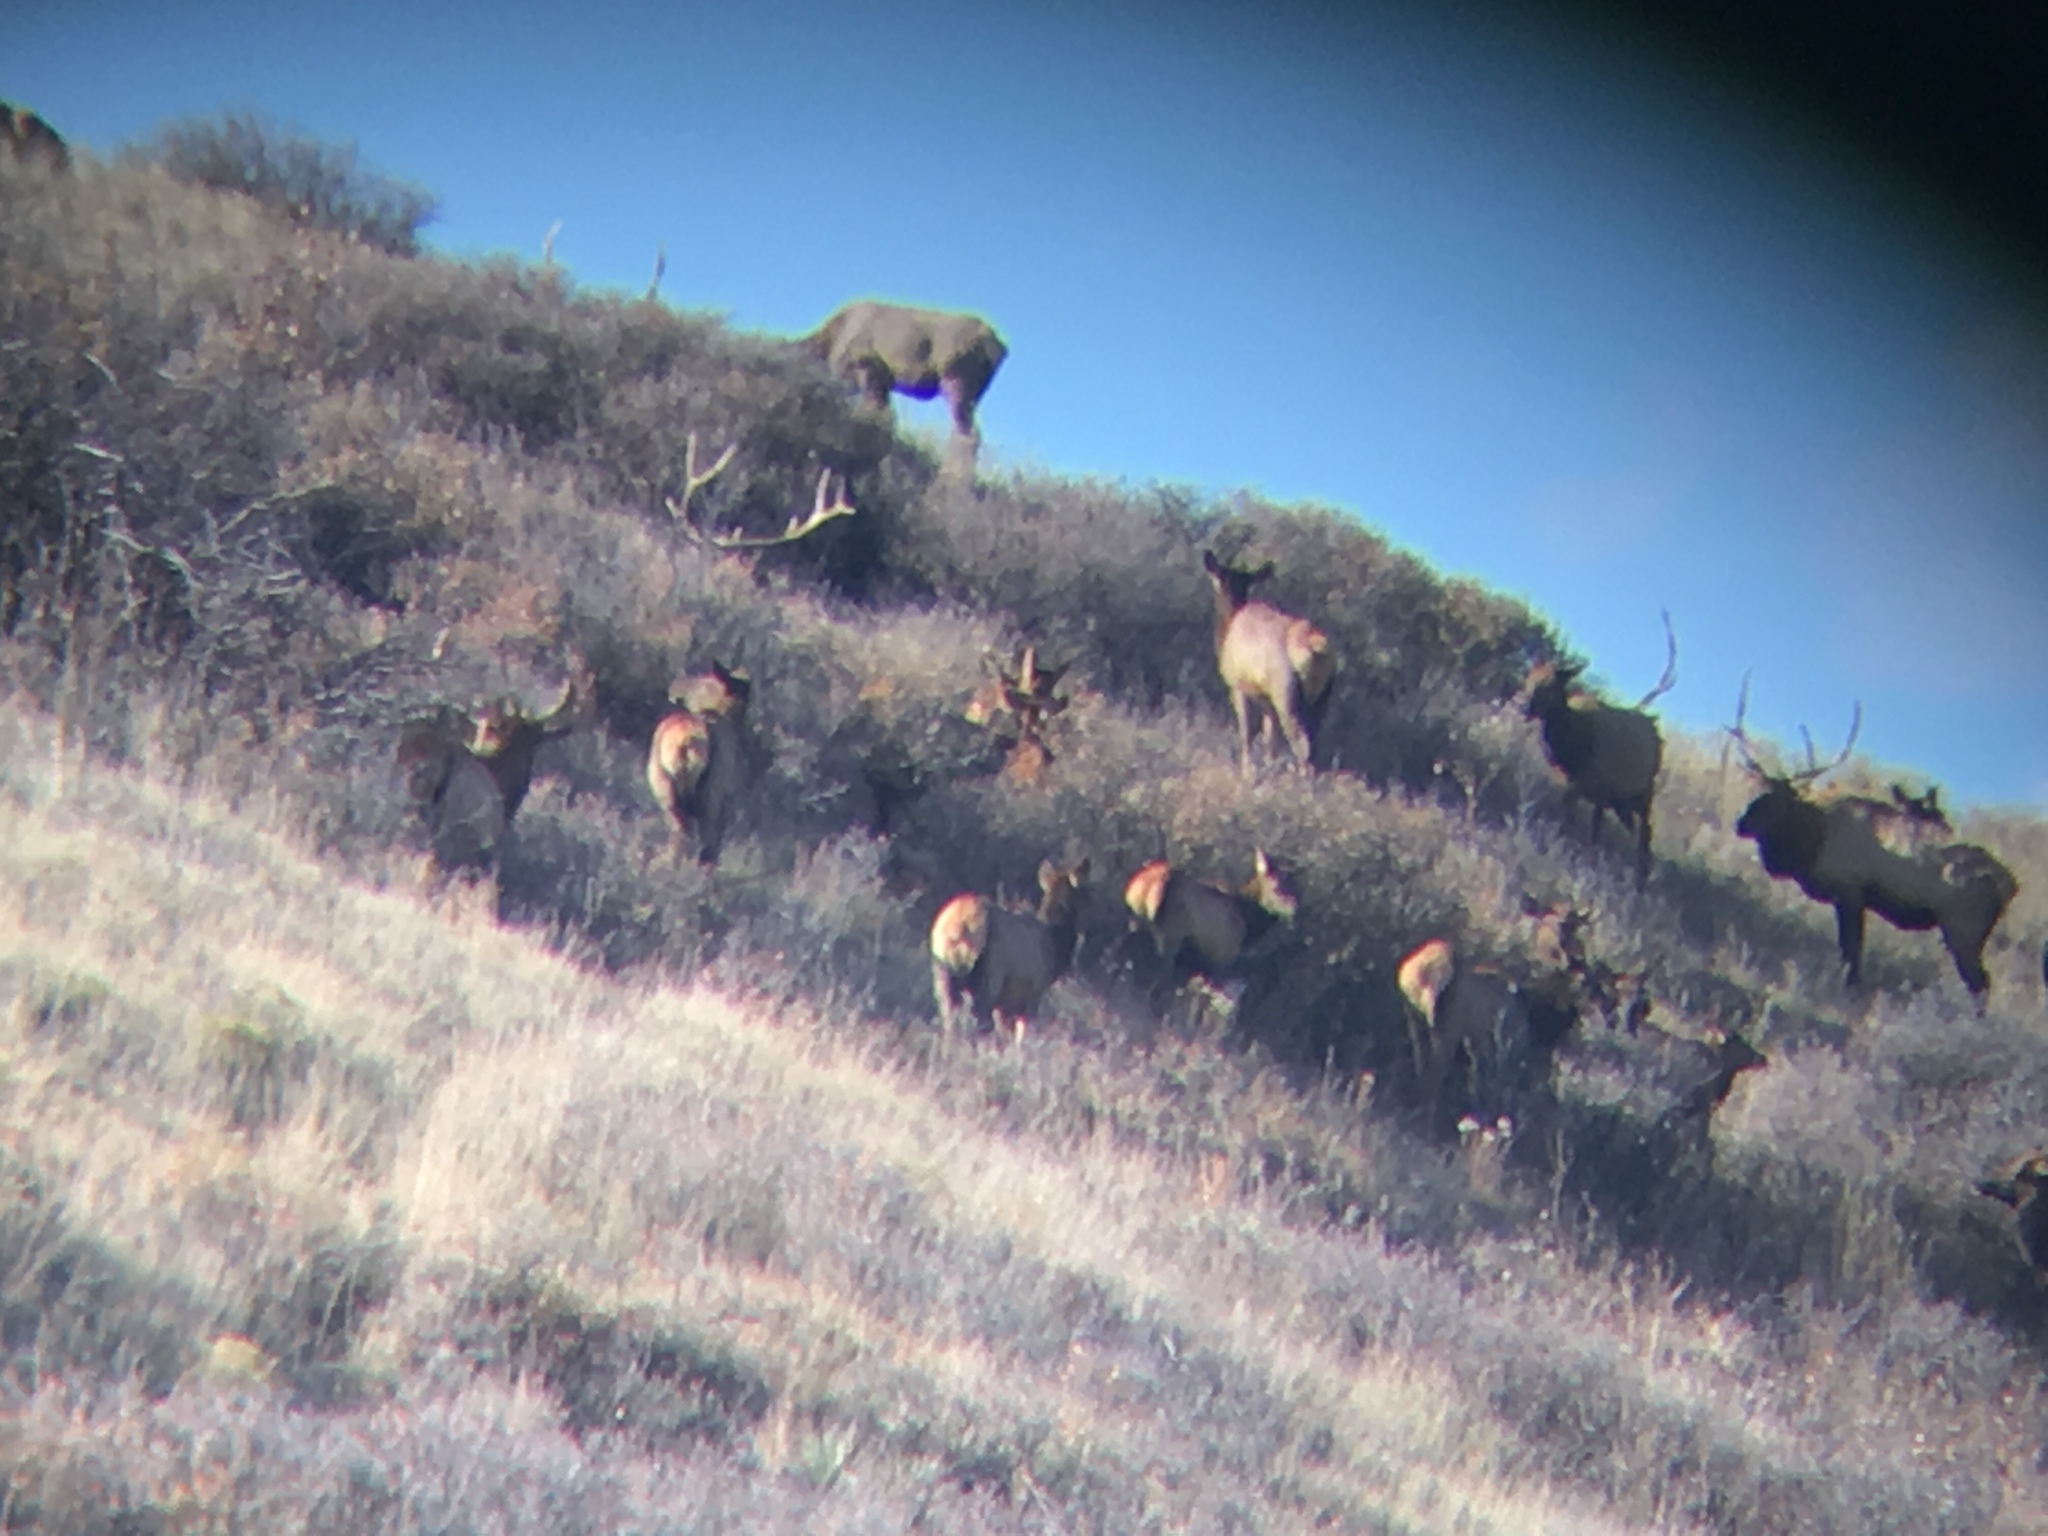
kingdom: Animalia
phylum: Chordata
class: Mammalia
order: Artiodactyla
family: Cervidae
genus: Cervus
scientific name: Cervus elaphus
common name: Red deer
